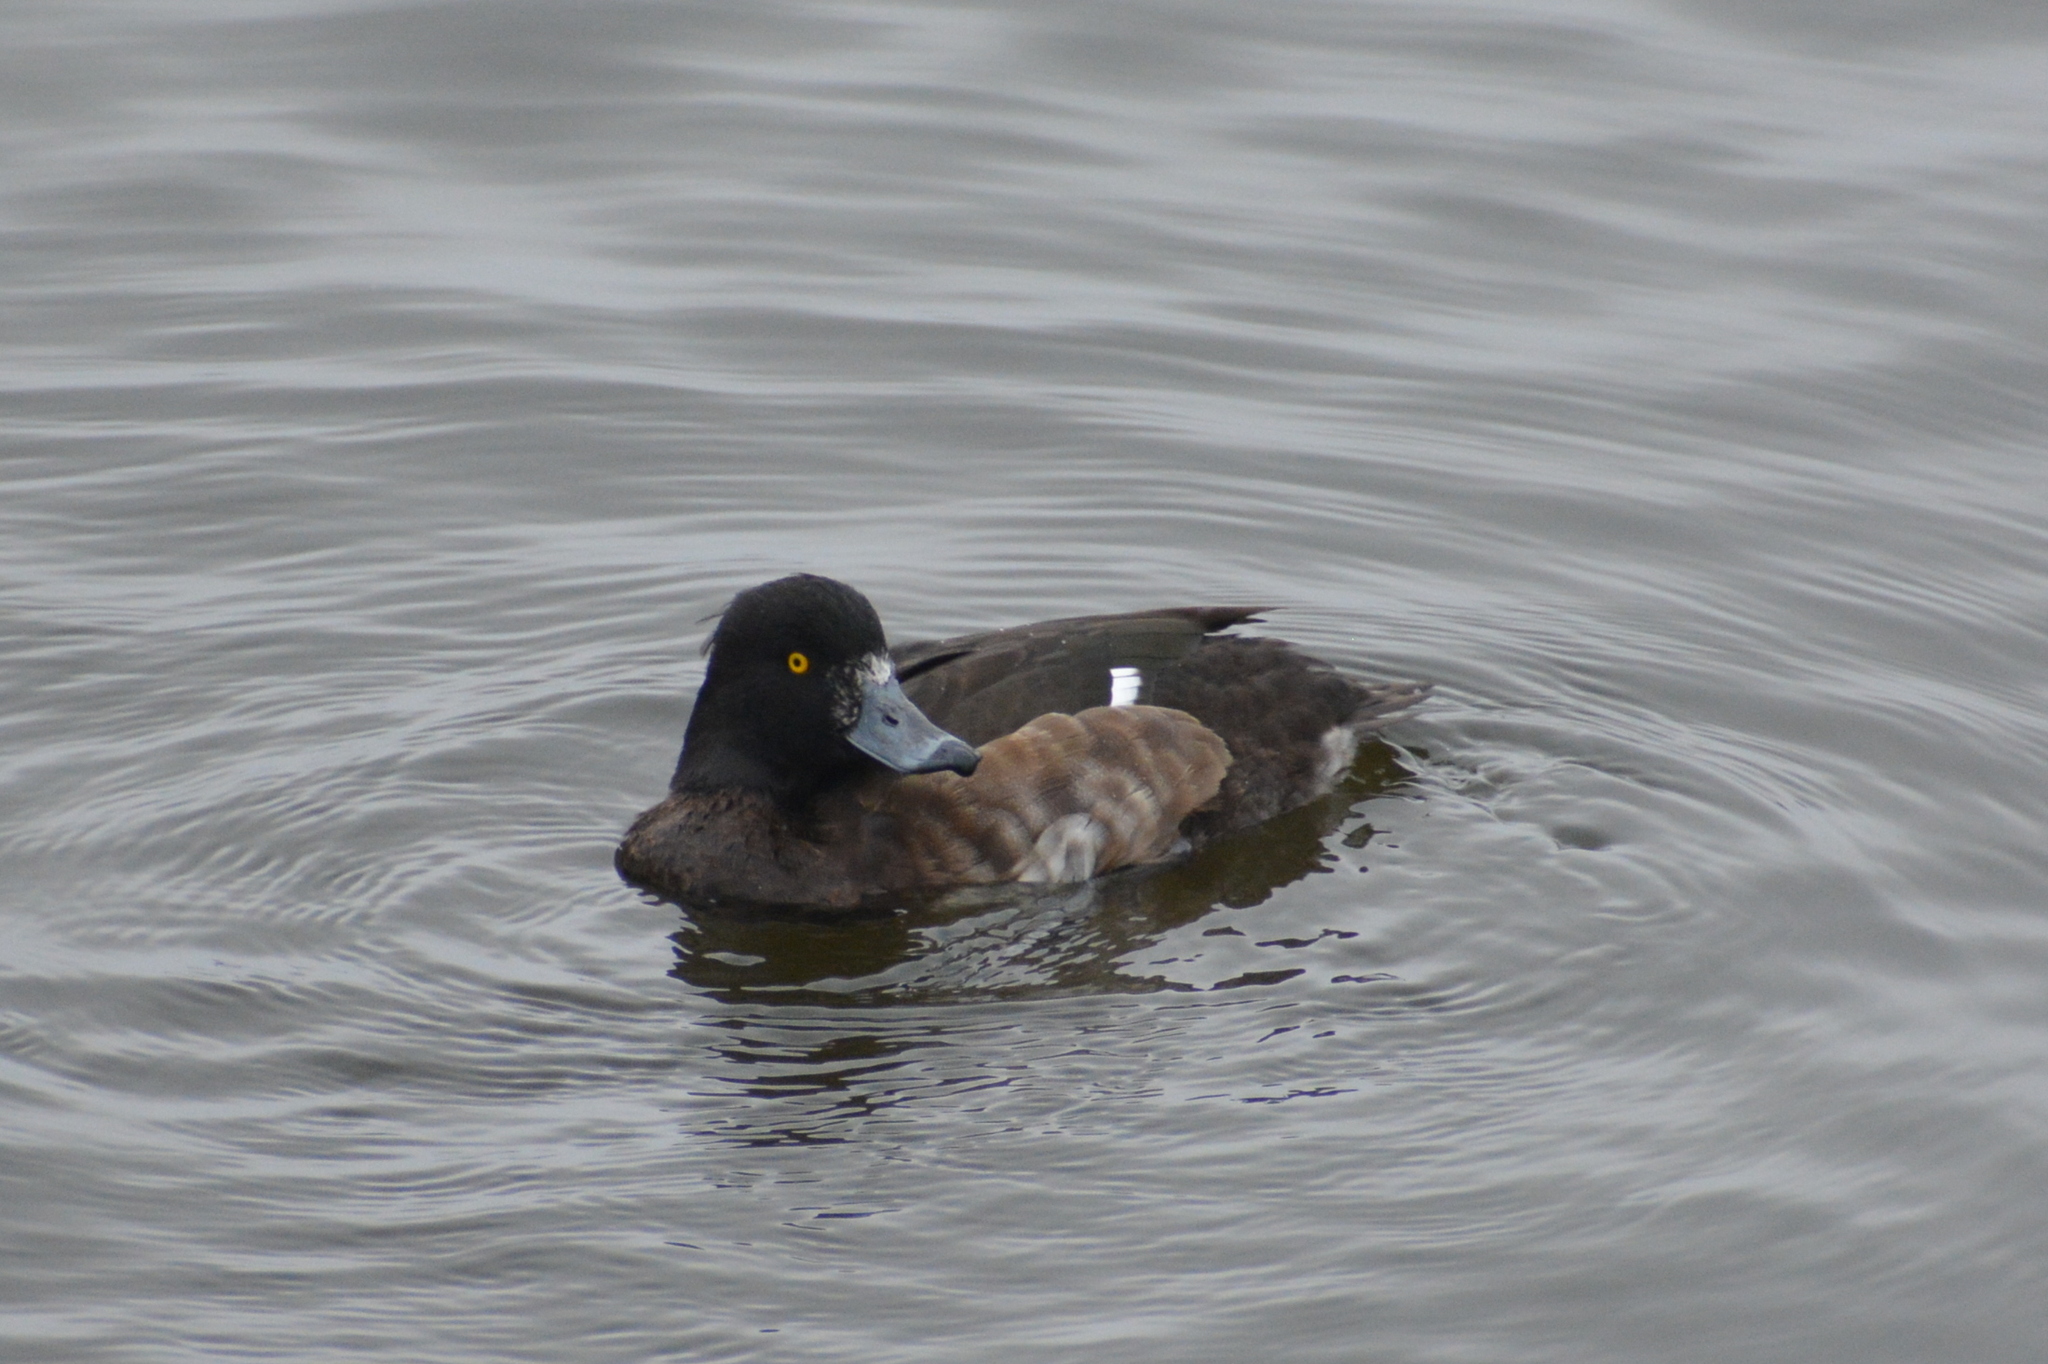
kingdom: Animalia
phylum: Chordata
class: Aves
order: Anseriformes
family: Anatidae
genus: Aythya
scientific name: Aythya fuligula
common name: Tufted duck
